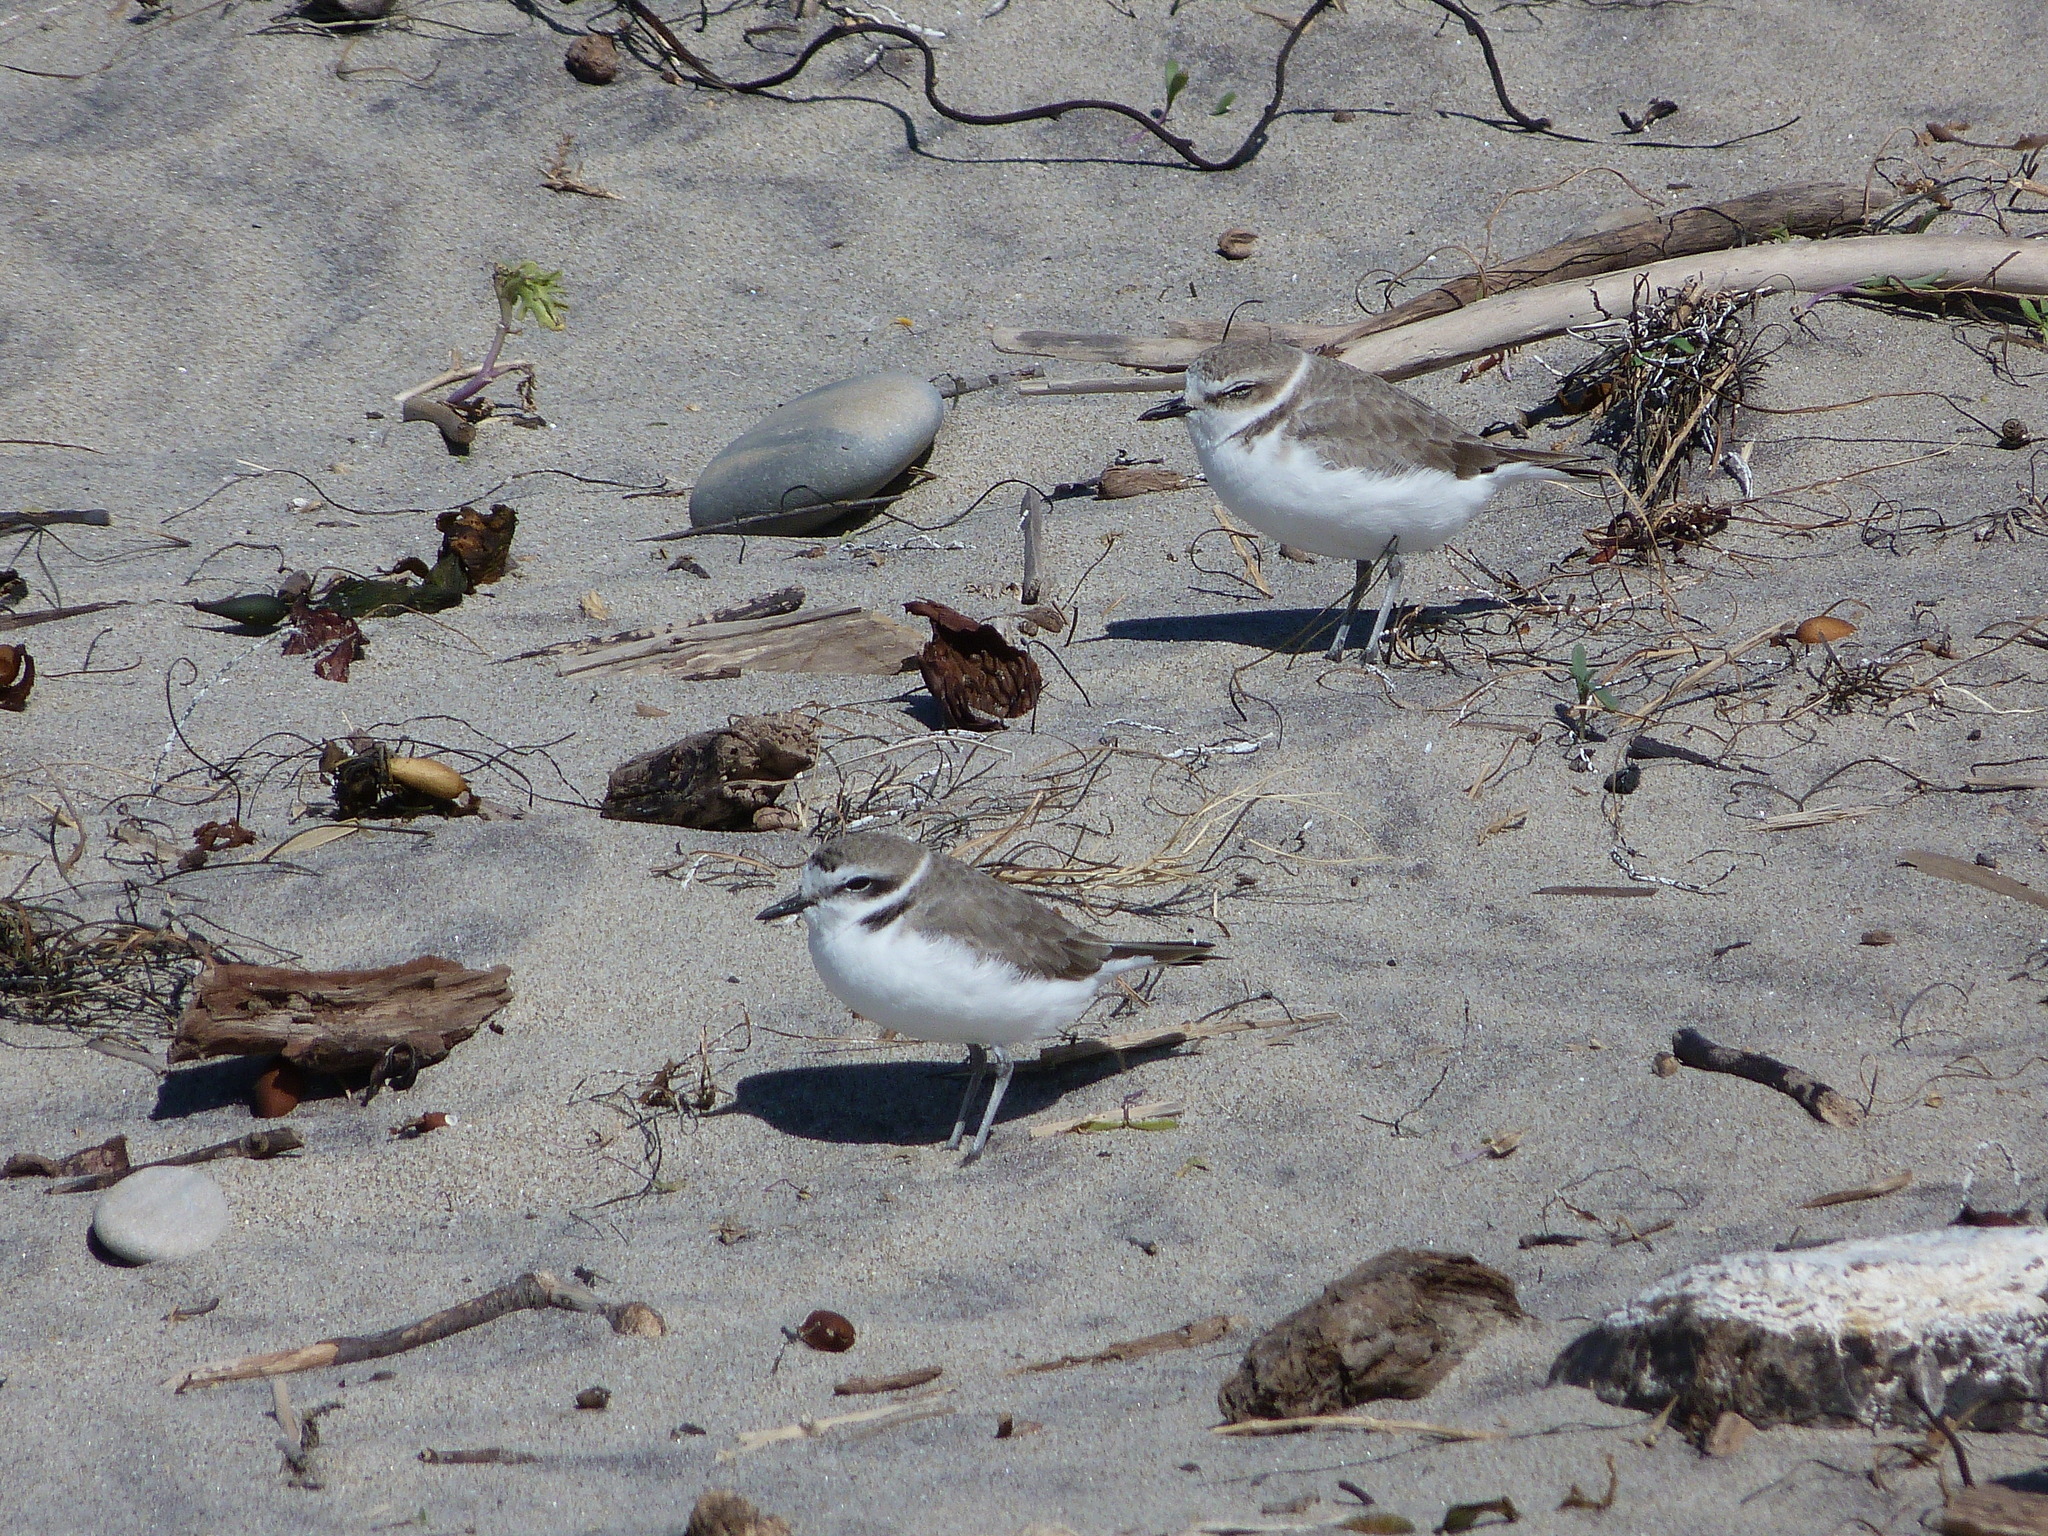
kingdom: Animalia
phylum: Chordata
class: Aves
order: Charadriiformes
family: Charadriidae
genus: Anarhynchus
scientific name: Anarhynchus
